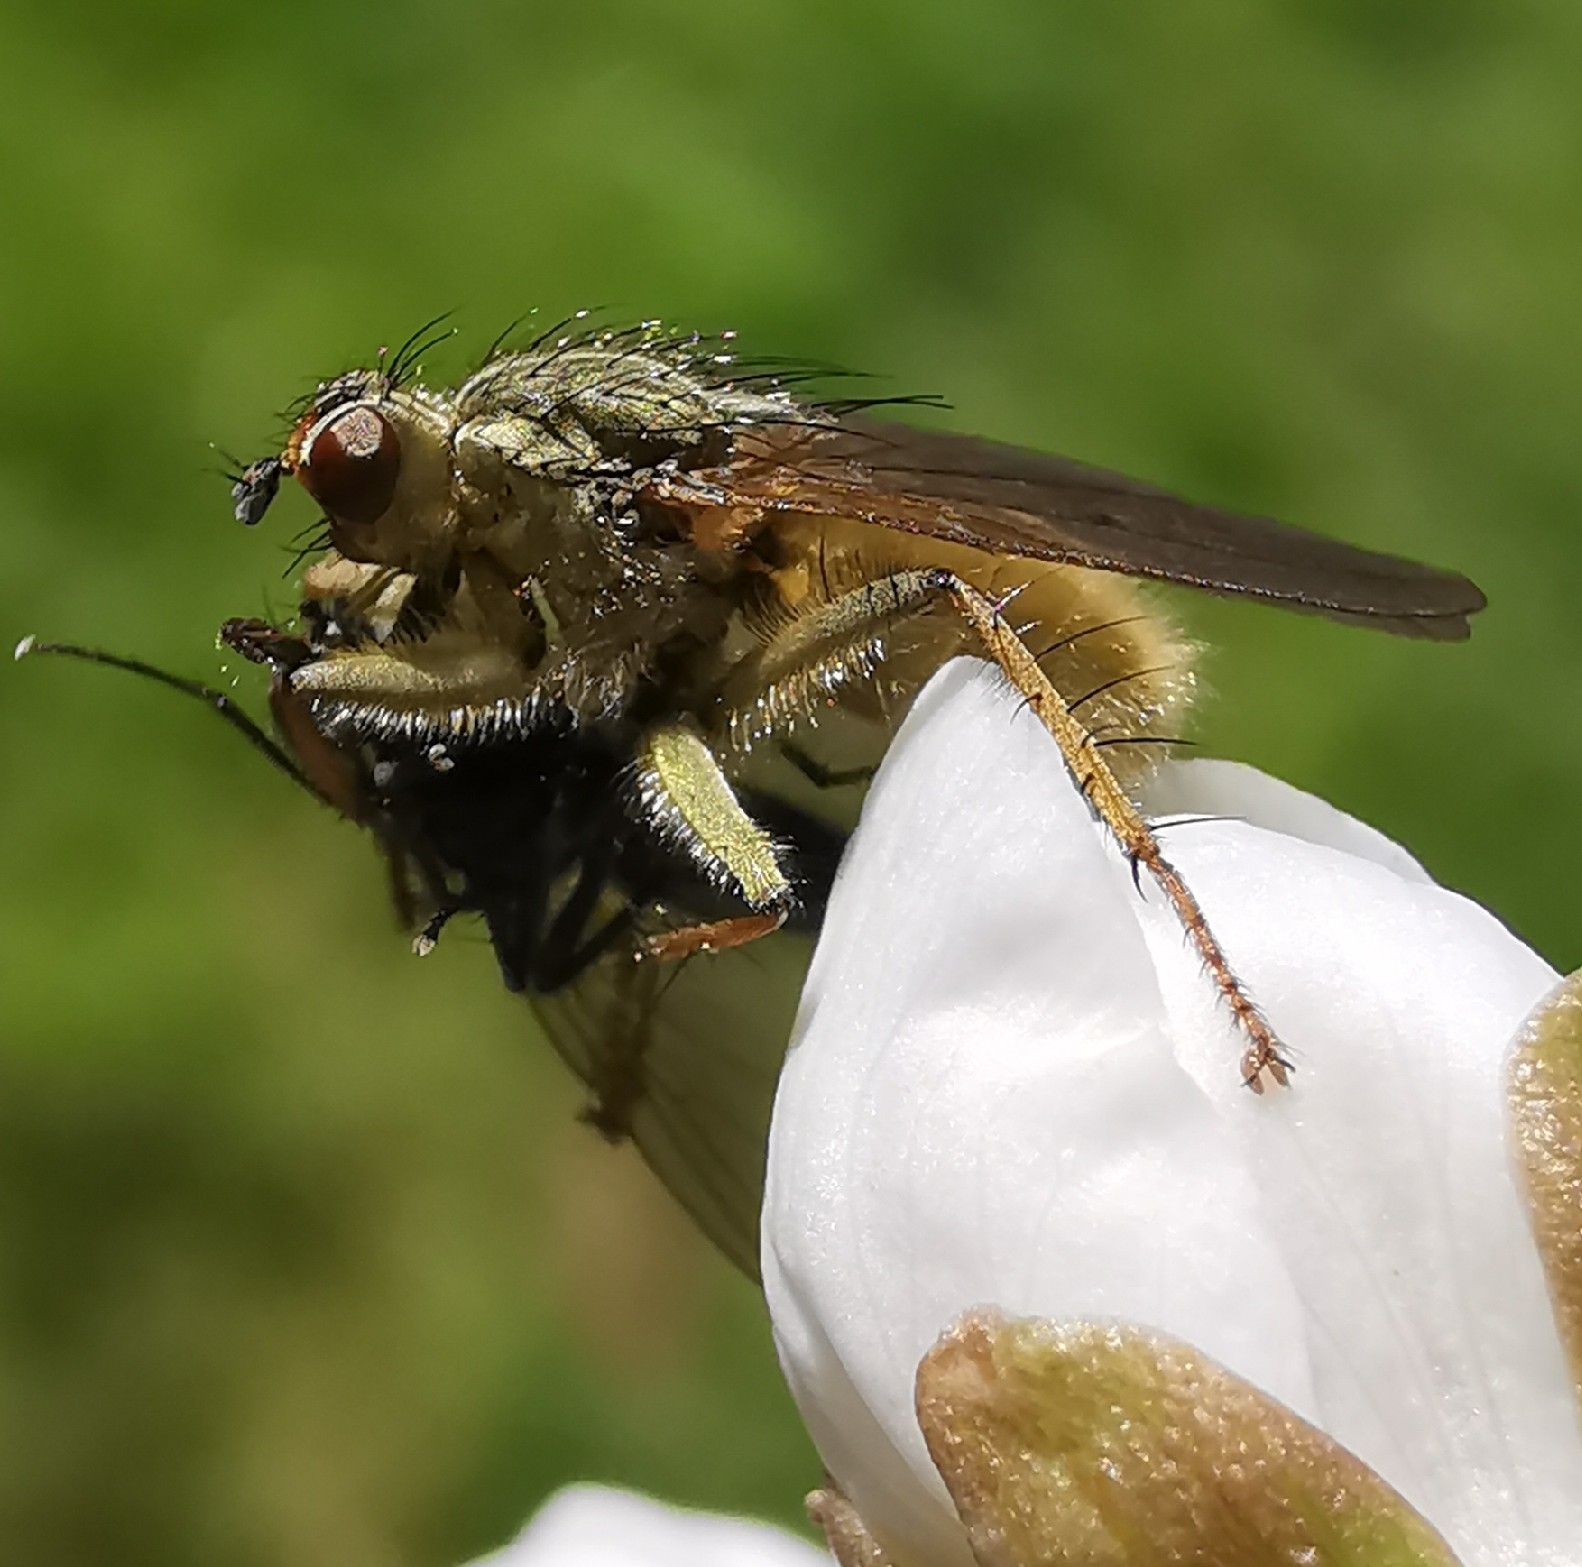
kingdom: Animalia
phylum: Arthropoda
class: Insecta
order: Diptera
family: Scathophagidae
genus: Scathophaga
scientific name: Scathophaga stercoraria
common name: Yellow dung fly
